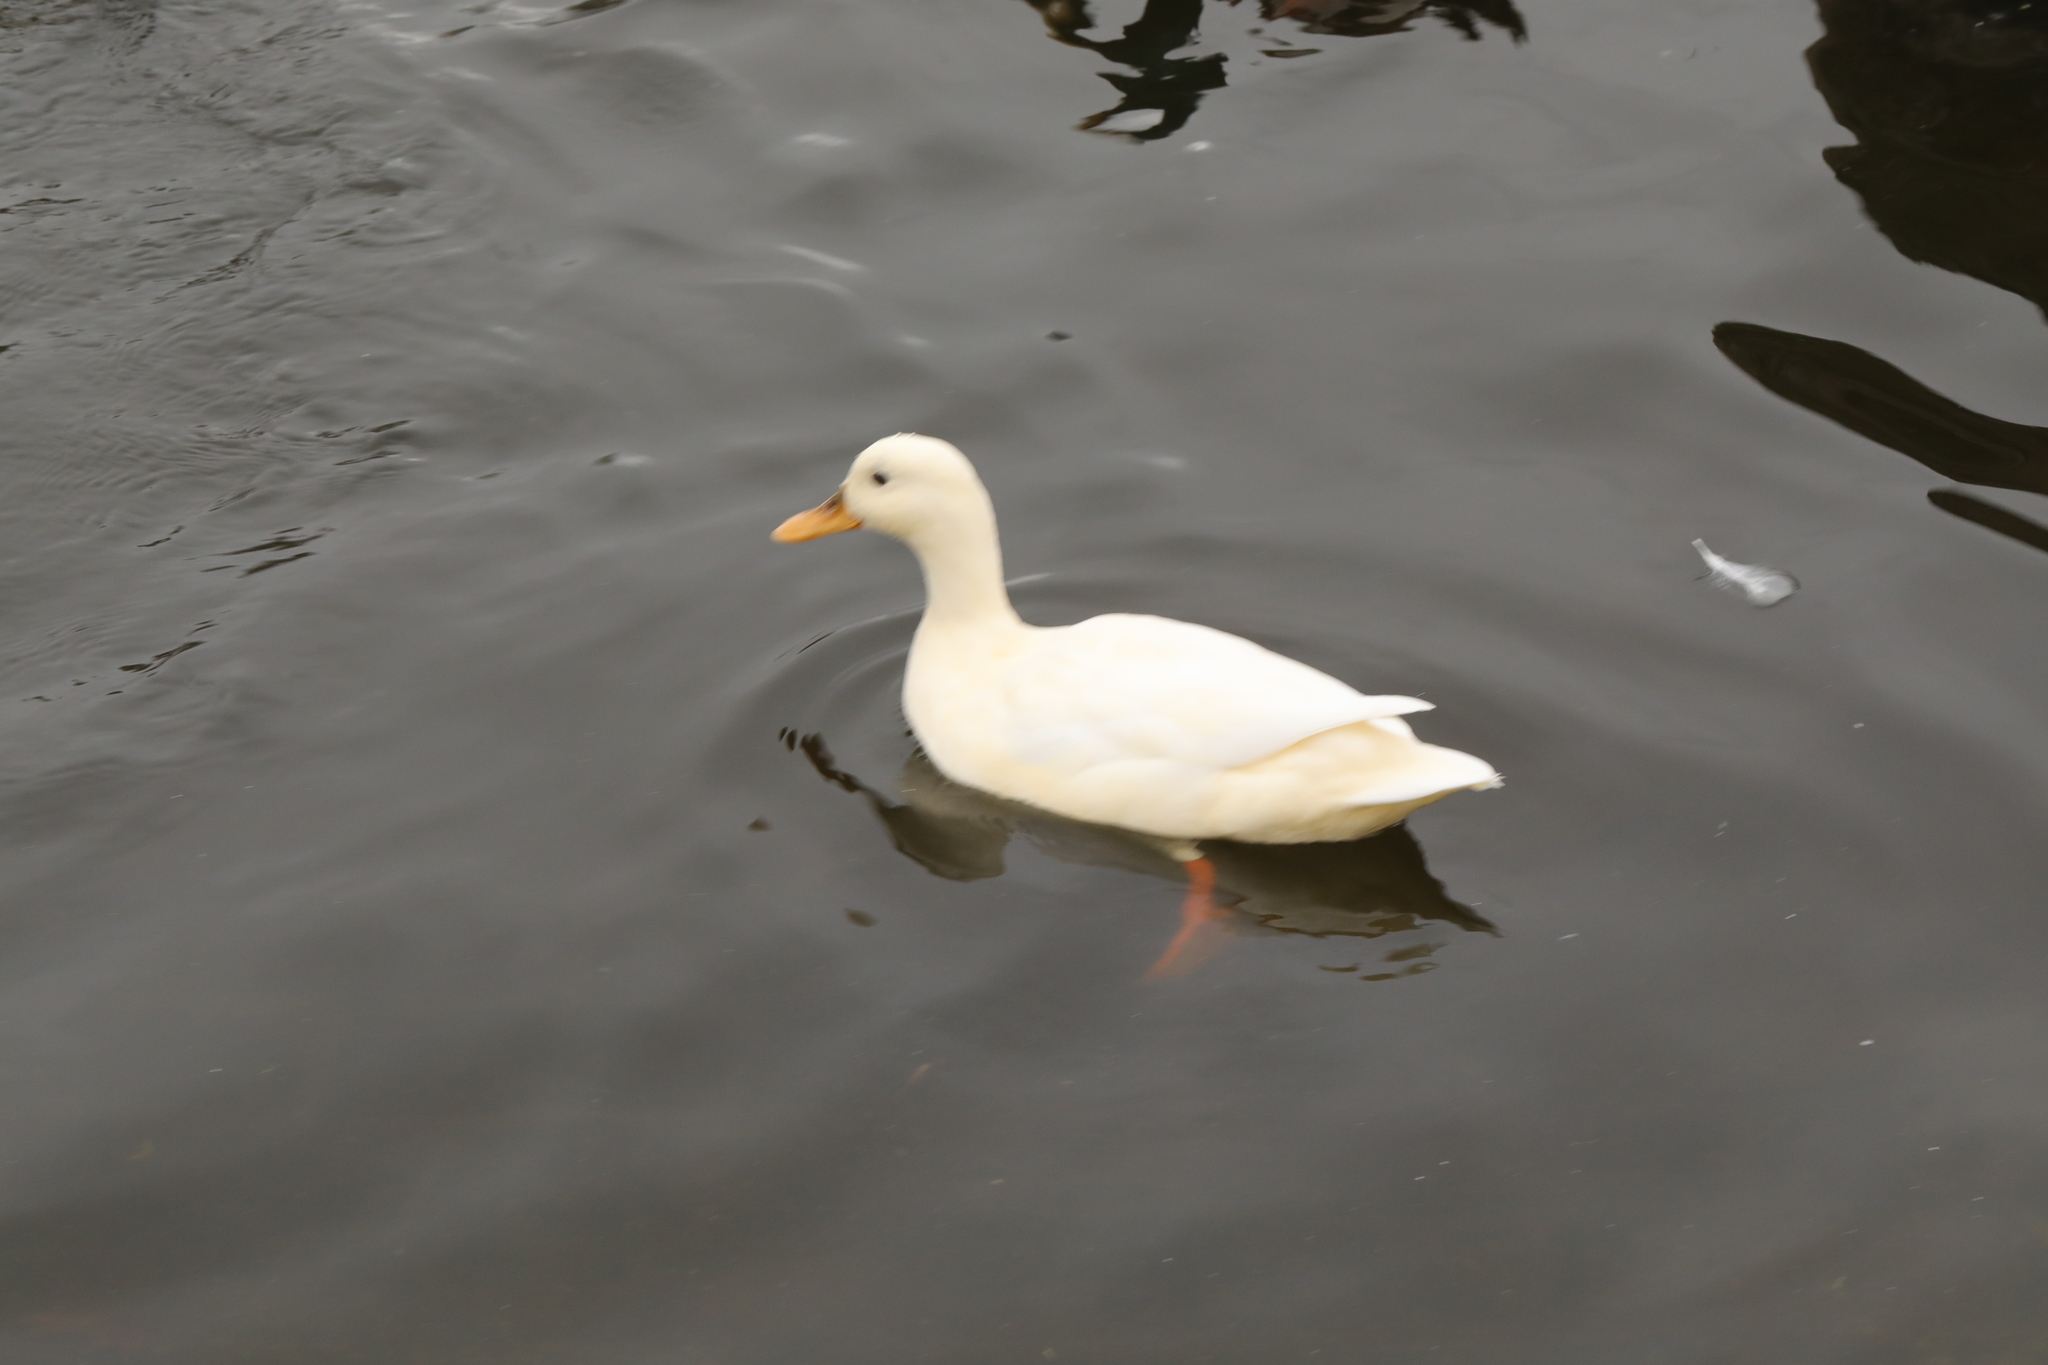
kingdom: Animalia
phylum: Chordata
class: Aves
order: Anseriformes
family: Anatidae
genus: Anas
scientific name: Anas platyrhynchos
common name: Mallard
